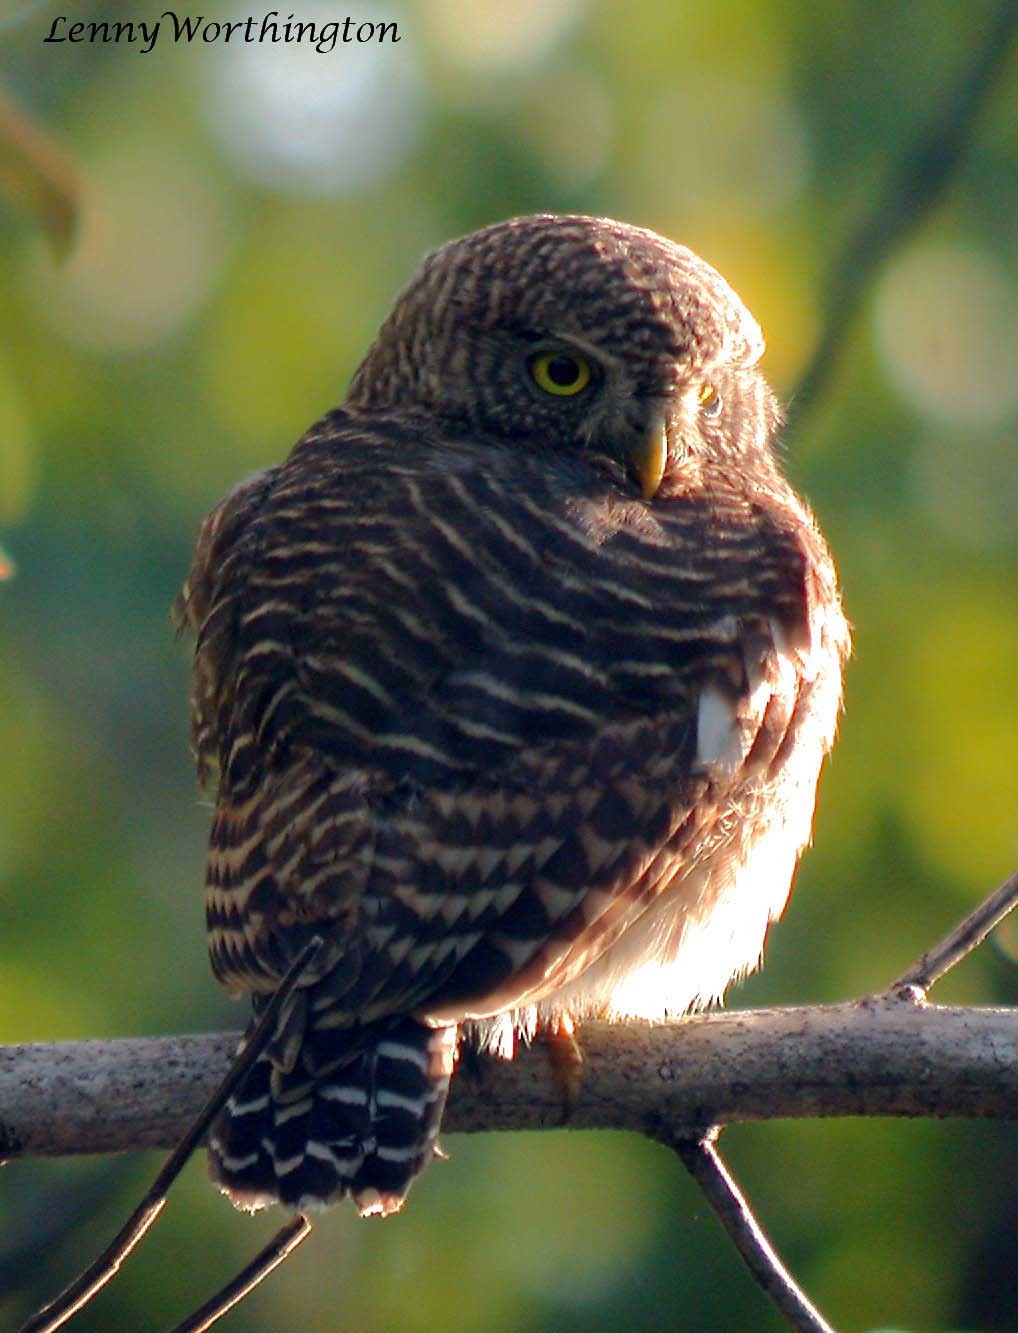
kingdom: Animalia
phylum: Chordata
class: Aves
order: Strigiformes
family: Strigidae
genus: Glaucidium
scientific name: Glaucidium cuculoides
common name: Asian barred owlet
